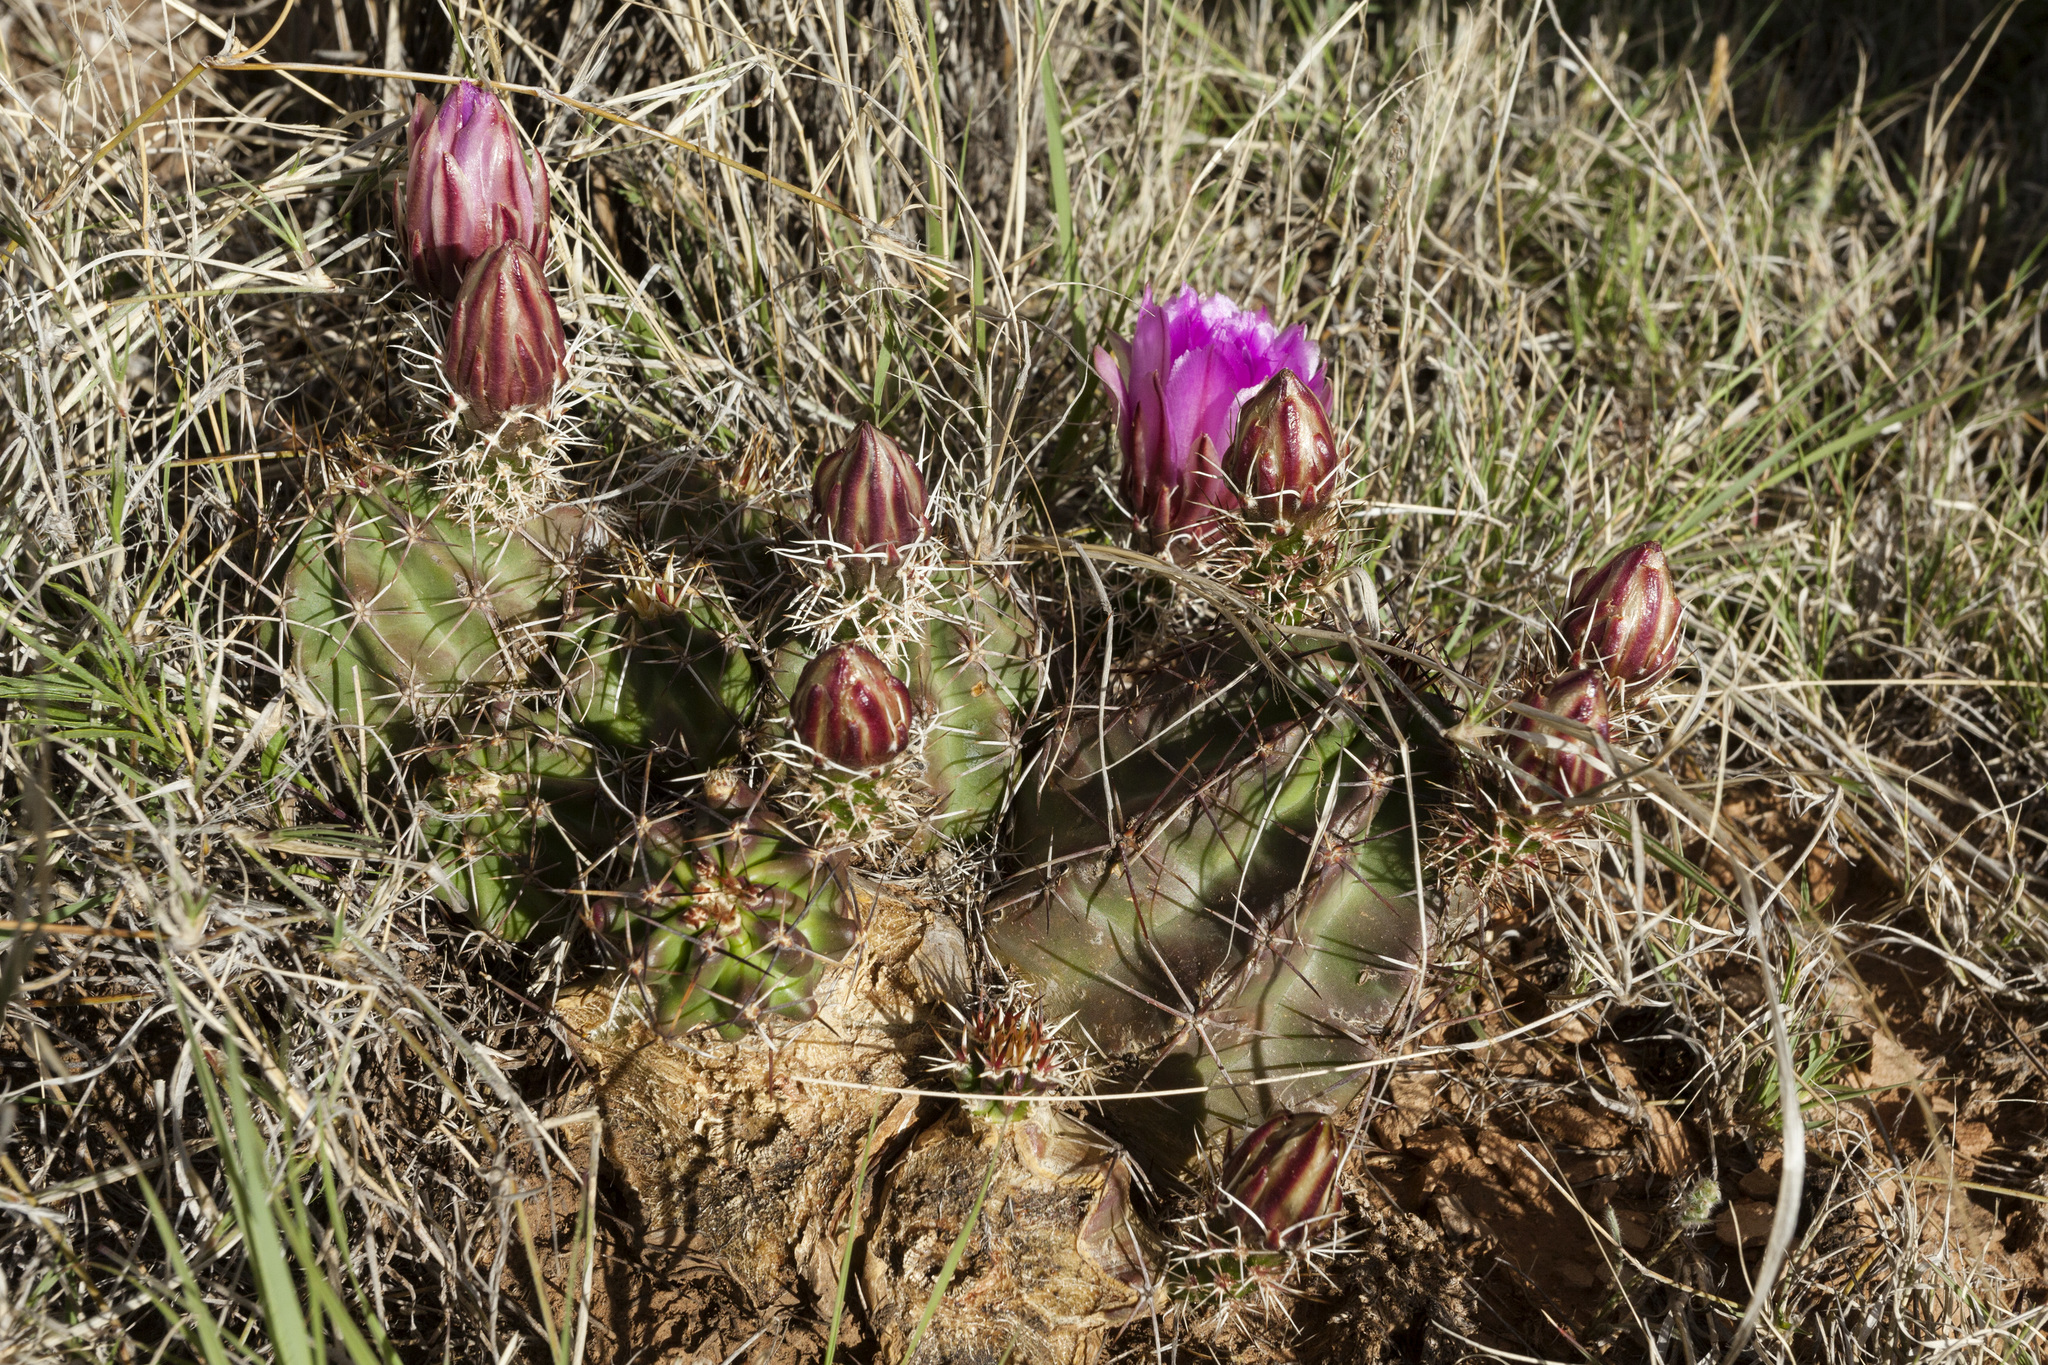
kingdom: Plantae
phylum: Tracheophyta
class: Magnoliopsida
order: Caryophyllales
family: Cactaceae
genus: Echinocereus
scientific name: Echinocereus fendleri
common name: Fendler's hedgehog cactus
